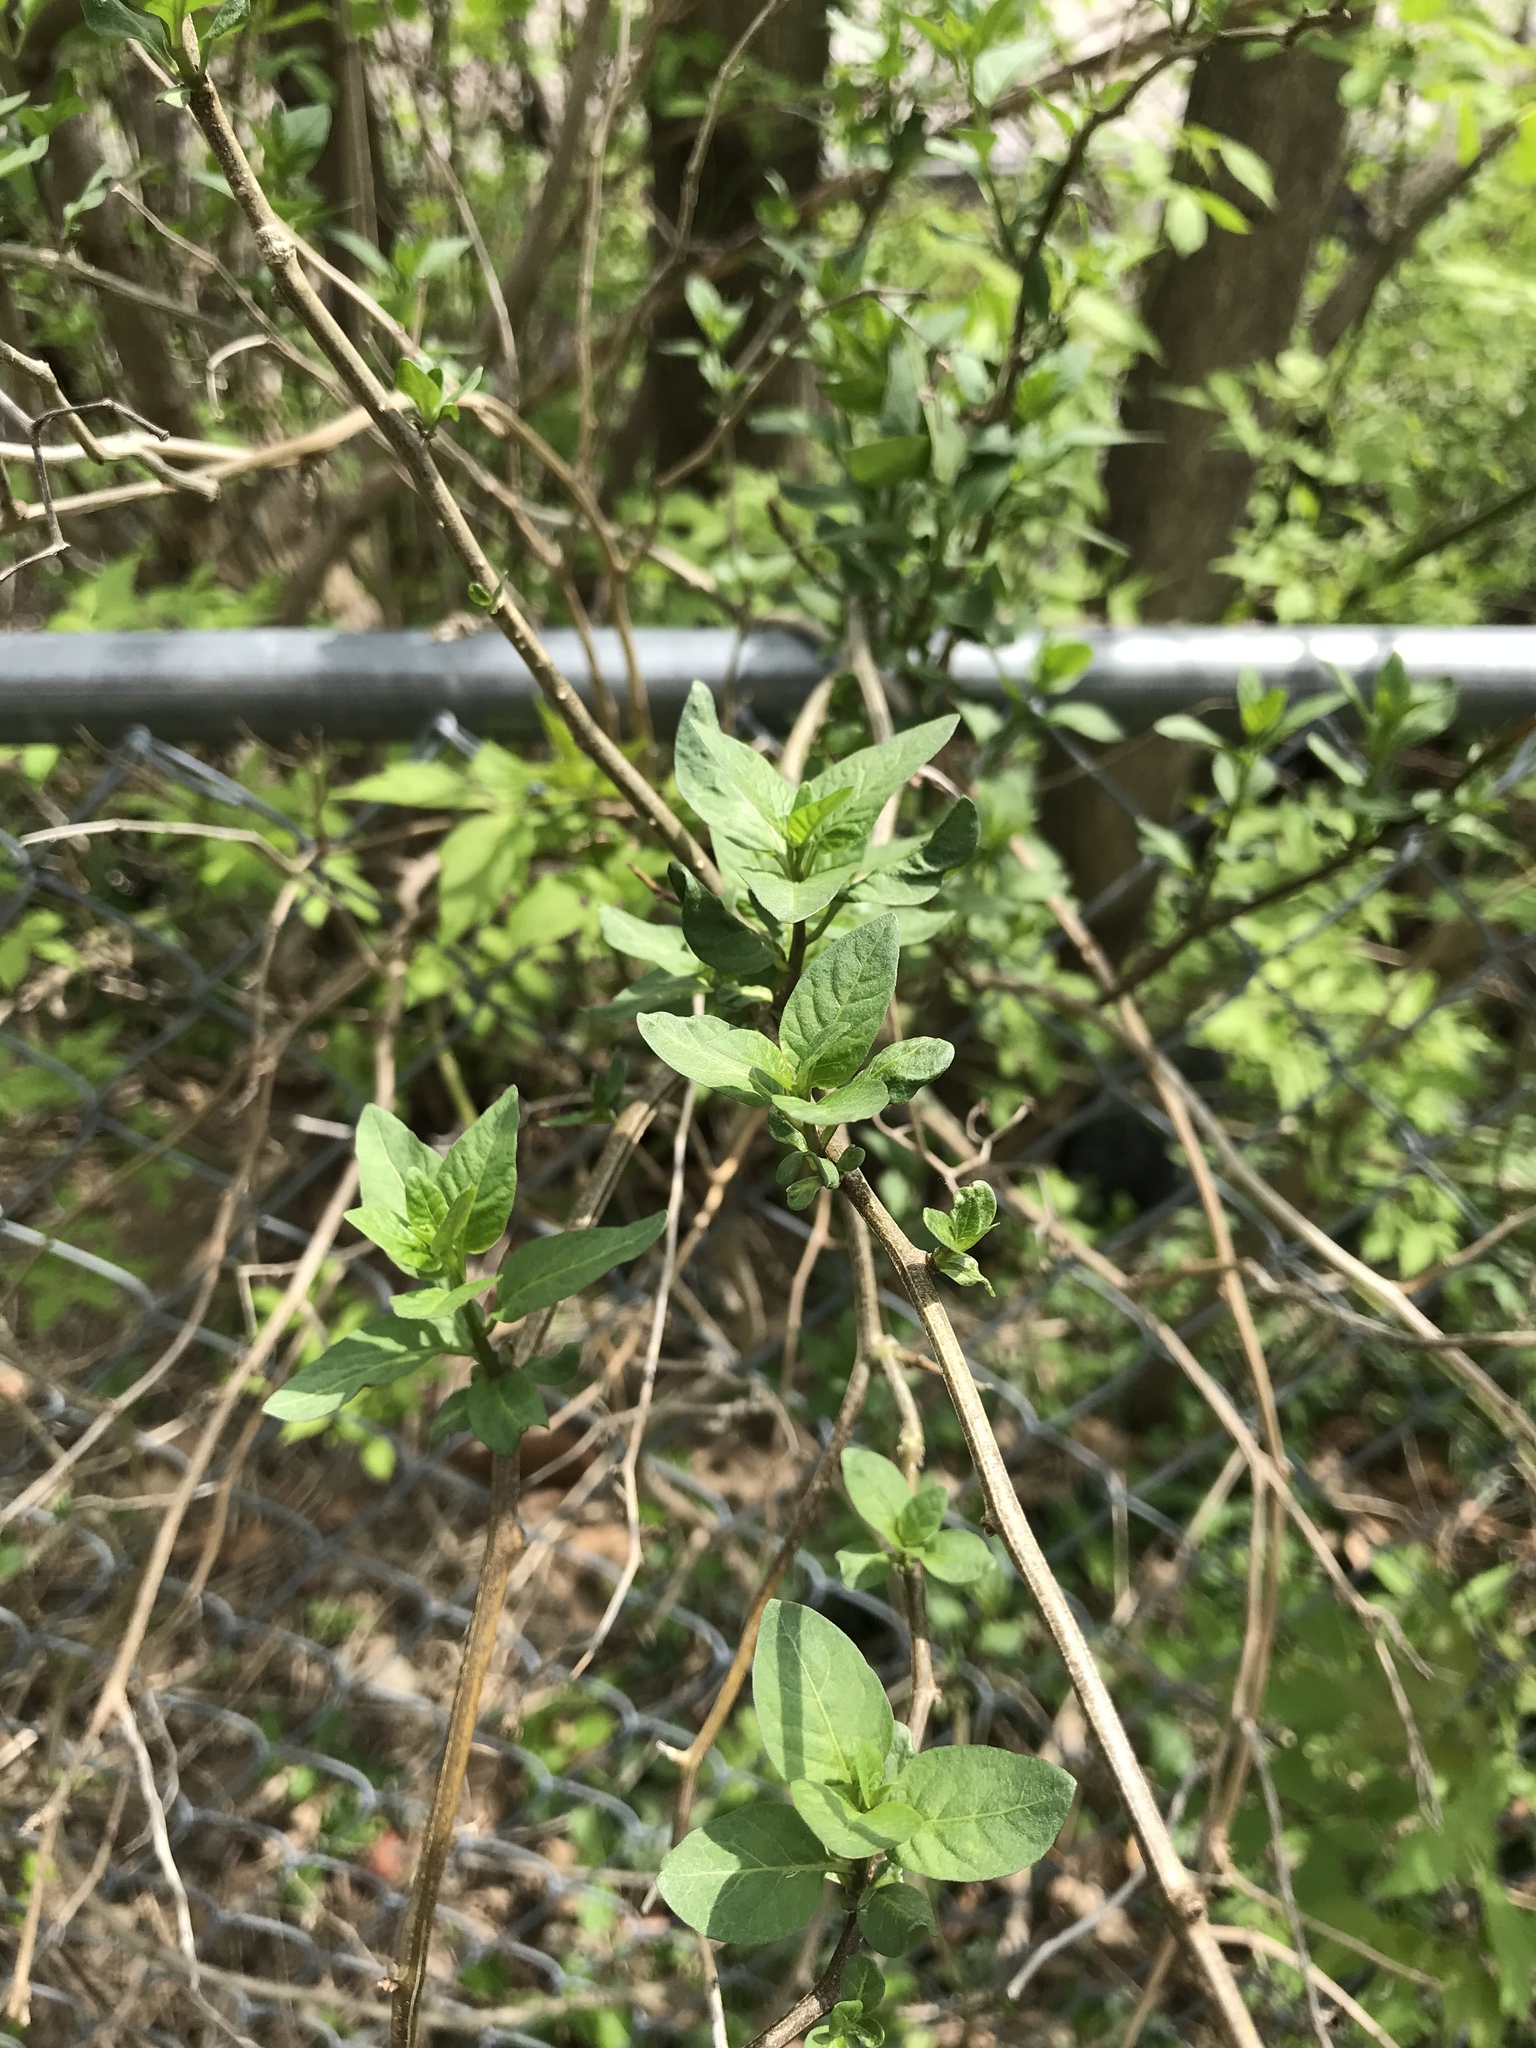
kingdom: Plantae
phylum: Tracheophyta
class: Magnoliopsida
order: Solanales
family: Solanaceae
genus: Solanum
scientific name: Solanum dulcamara
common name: Climbing nightshade
